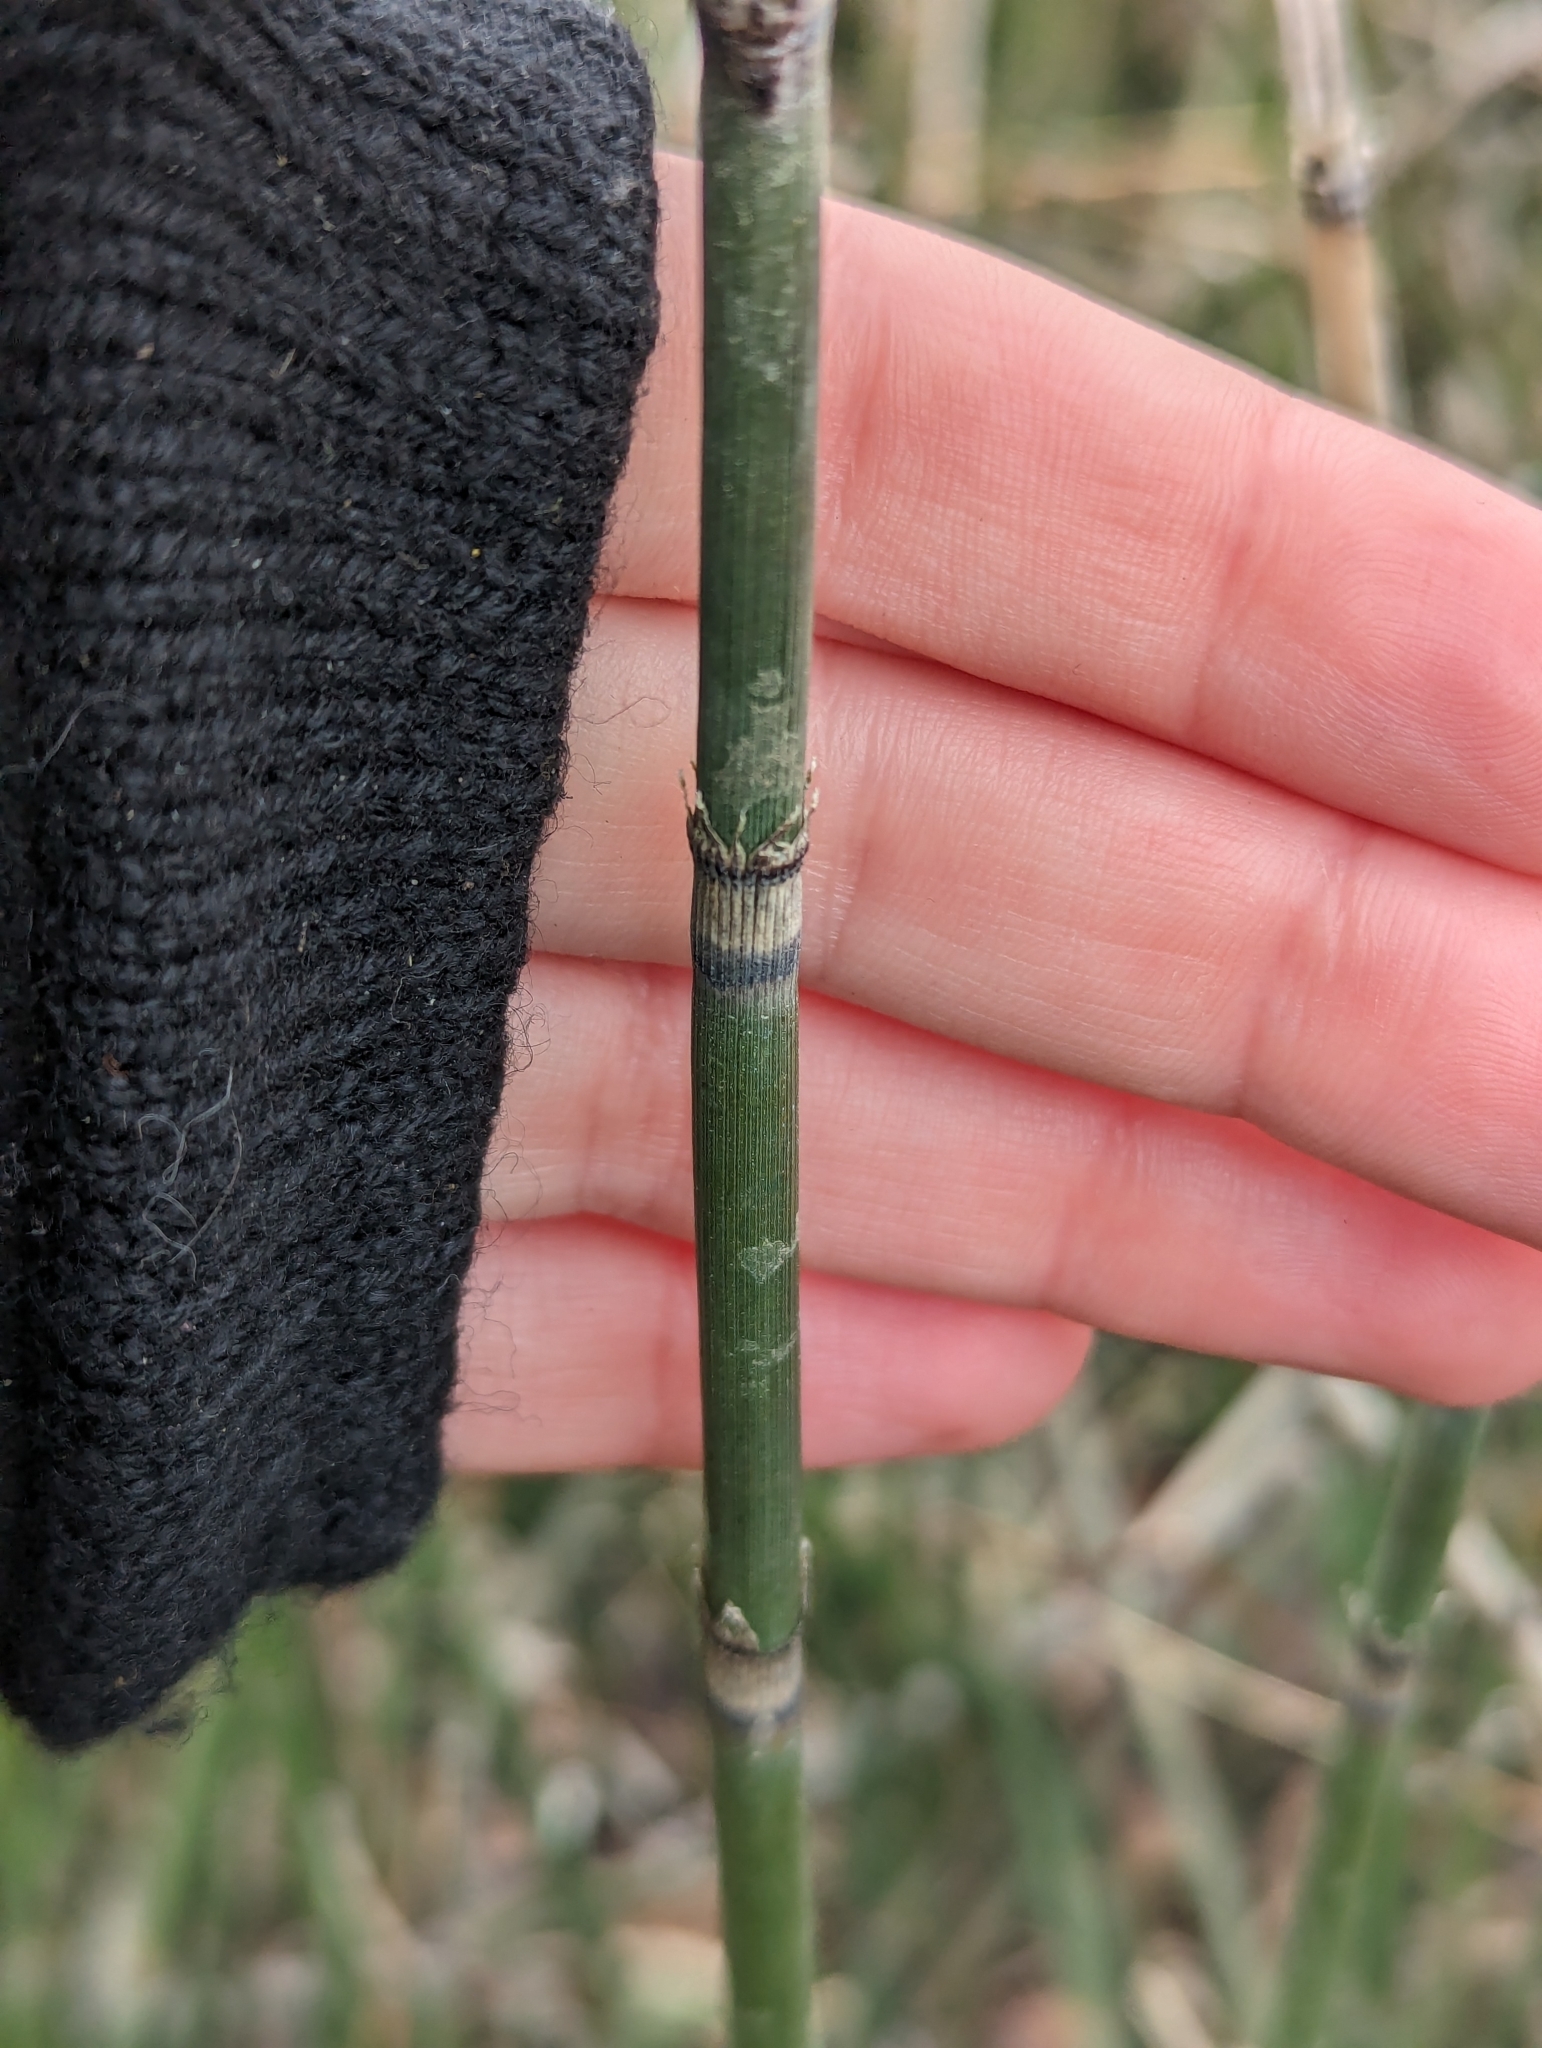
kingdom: Plantae
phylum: Tracheophyta
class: Polypodiopsida
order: Equisetales
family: Equisetaceae
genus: Equisetum
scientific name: Equisetum hyemale
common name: Rough horsetail
